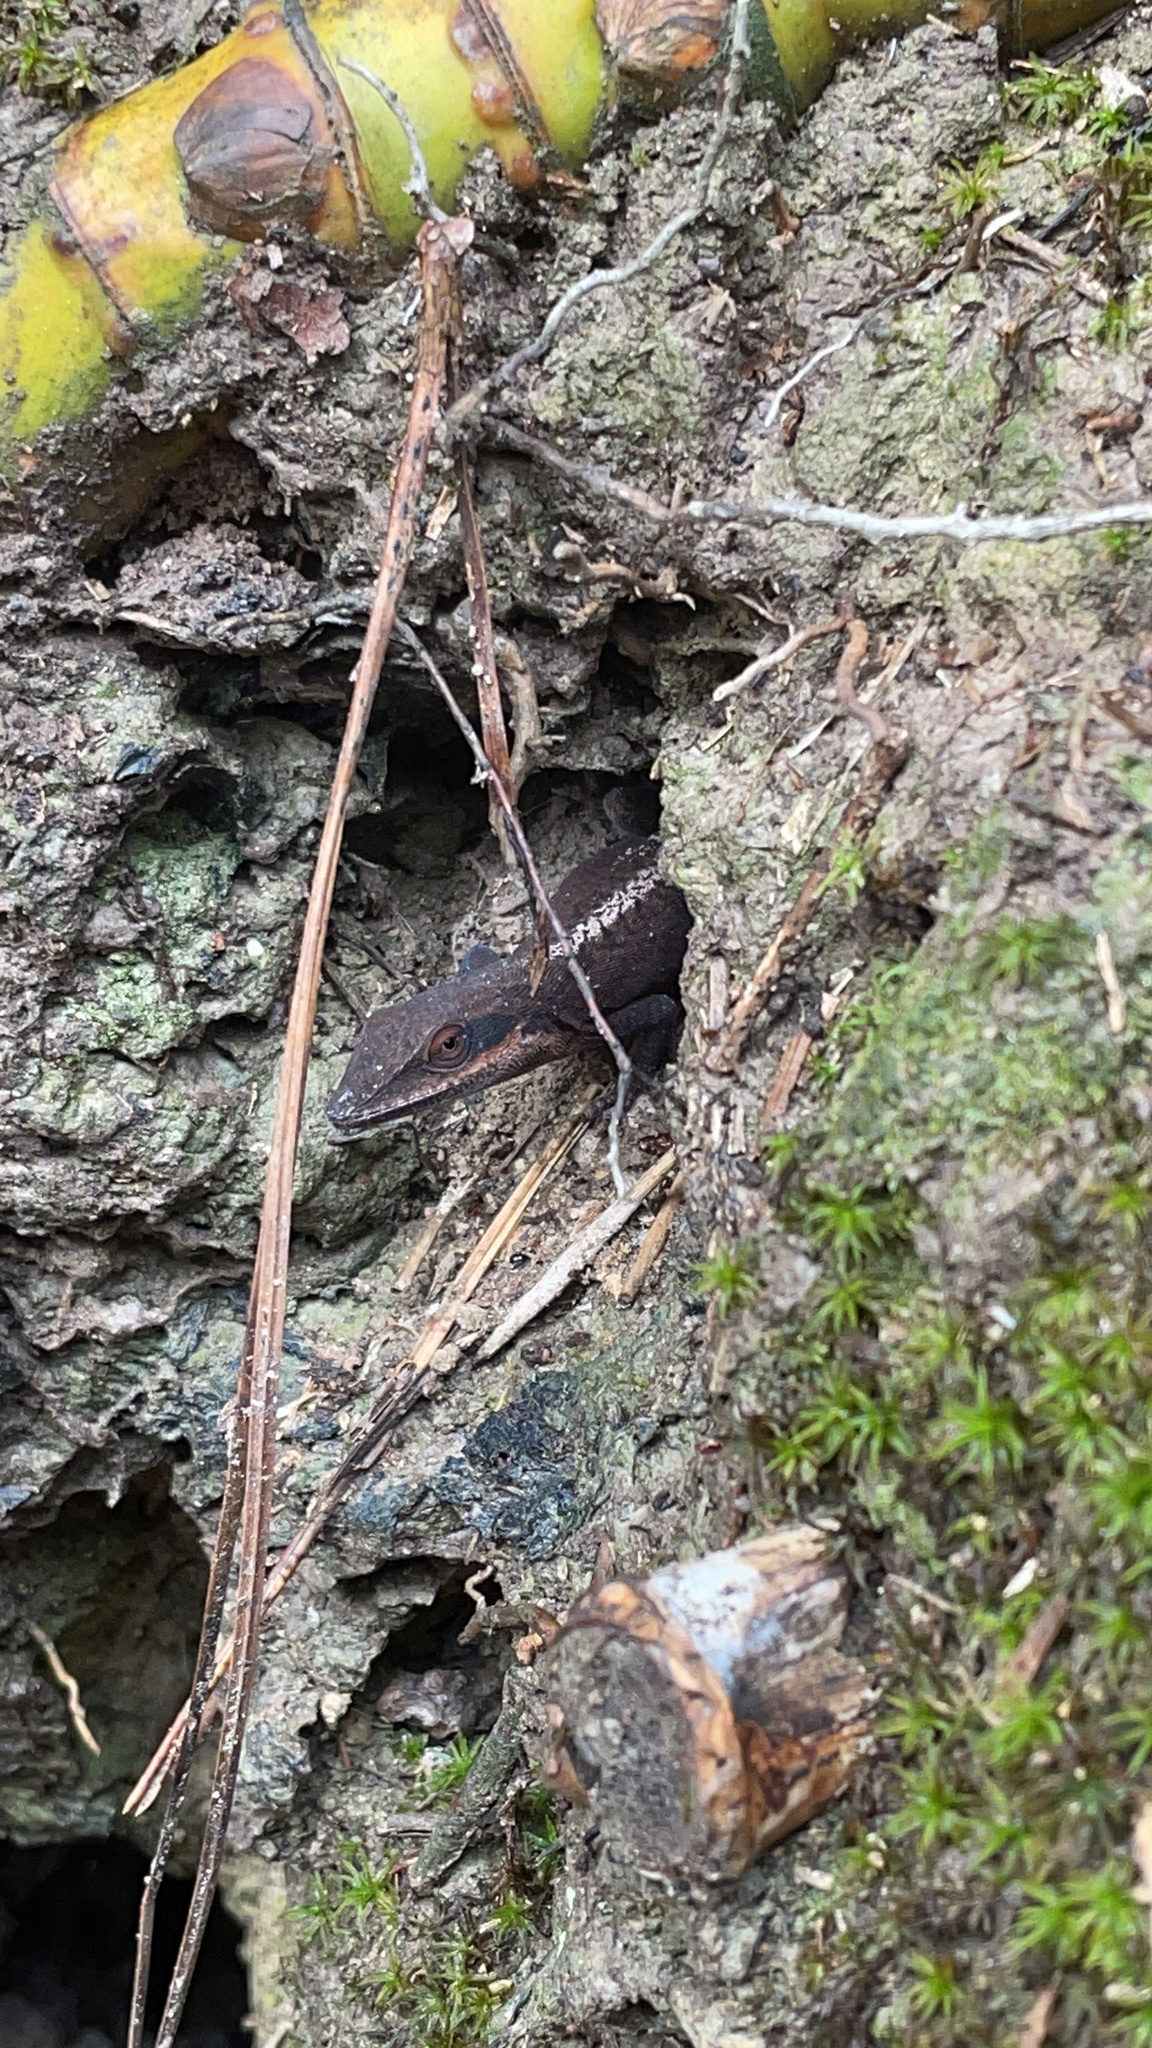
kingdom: Animalia
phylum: Chordata
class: Squamata
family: Dactyloidae
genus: Anolis
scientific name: Anolis carolinensis
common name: Green anole
